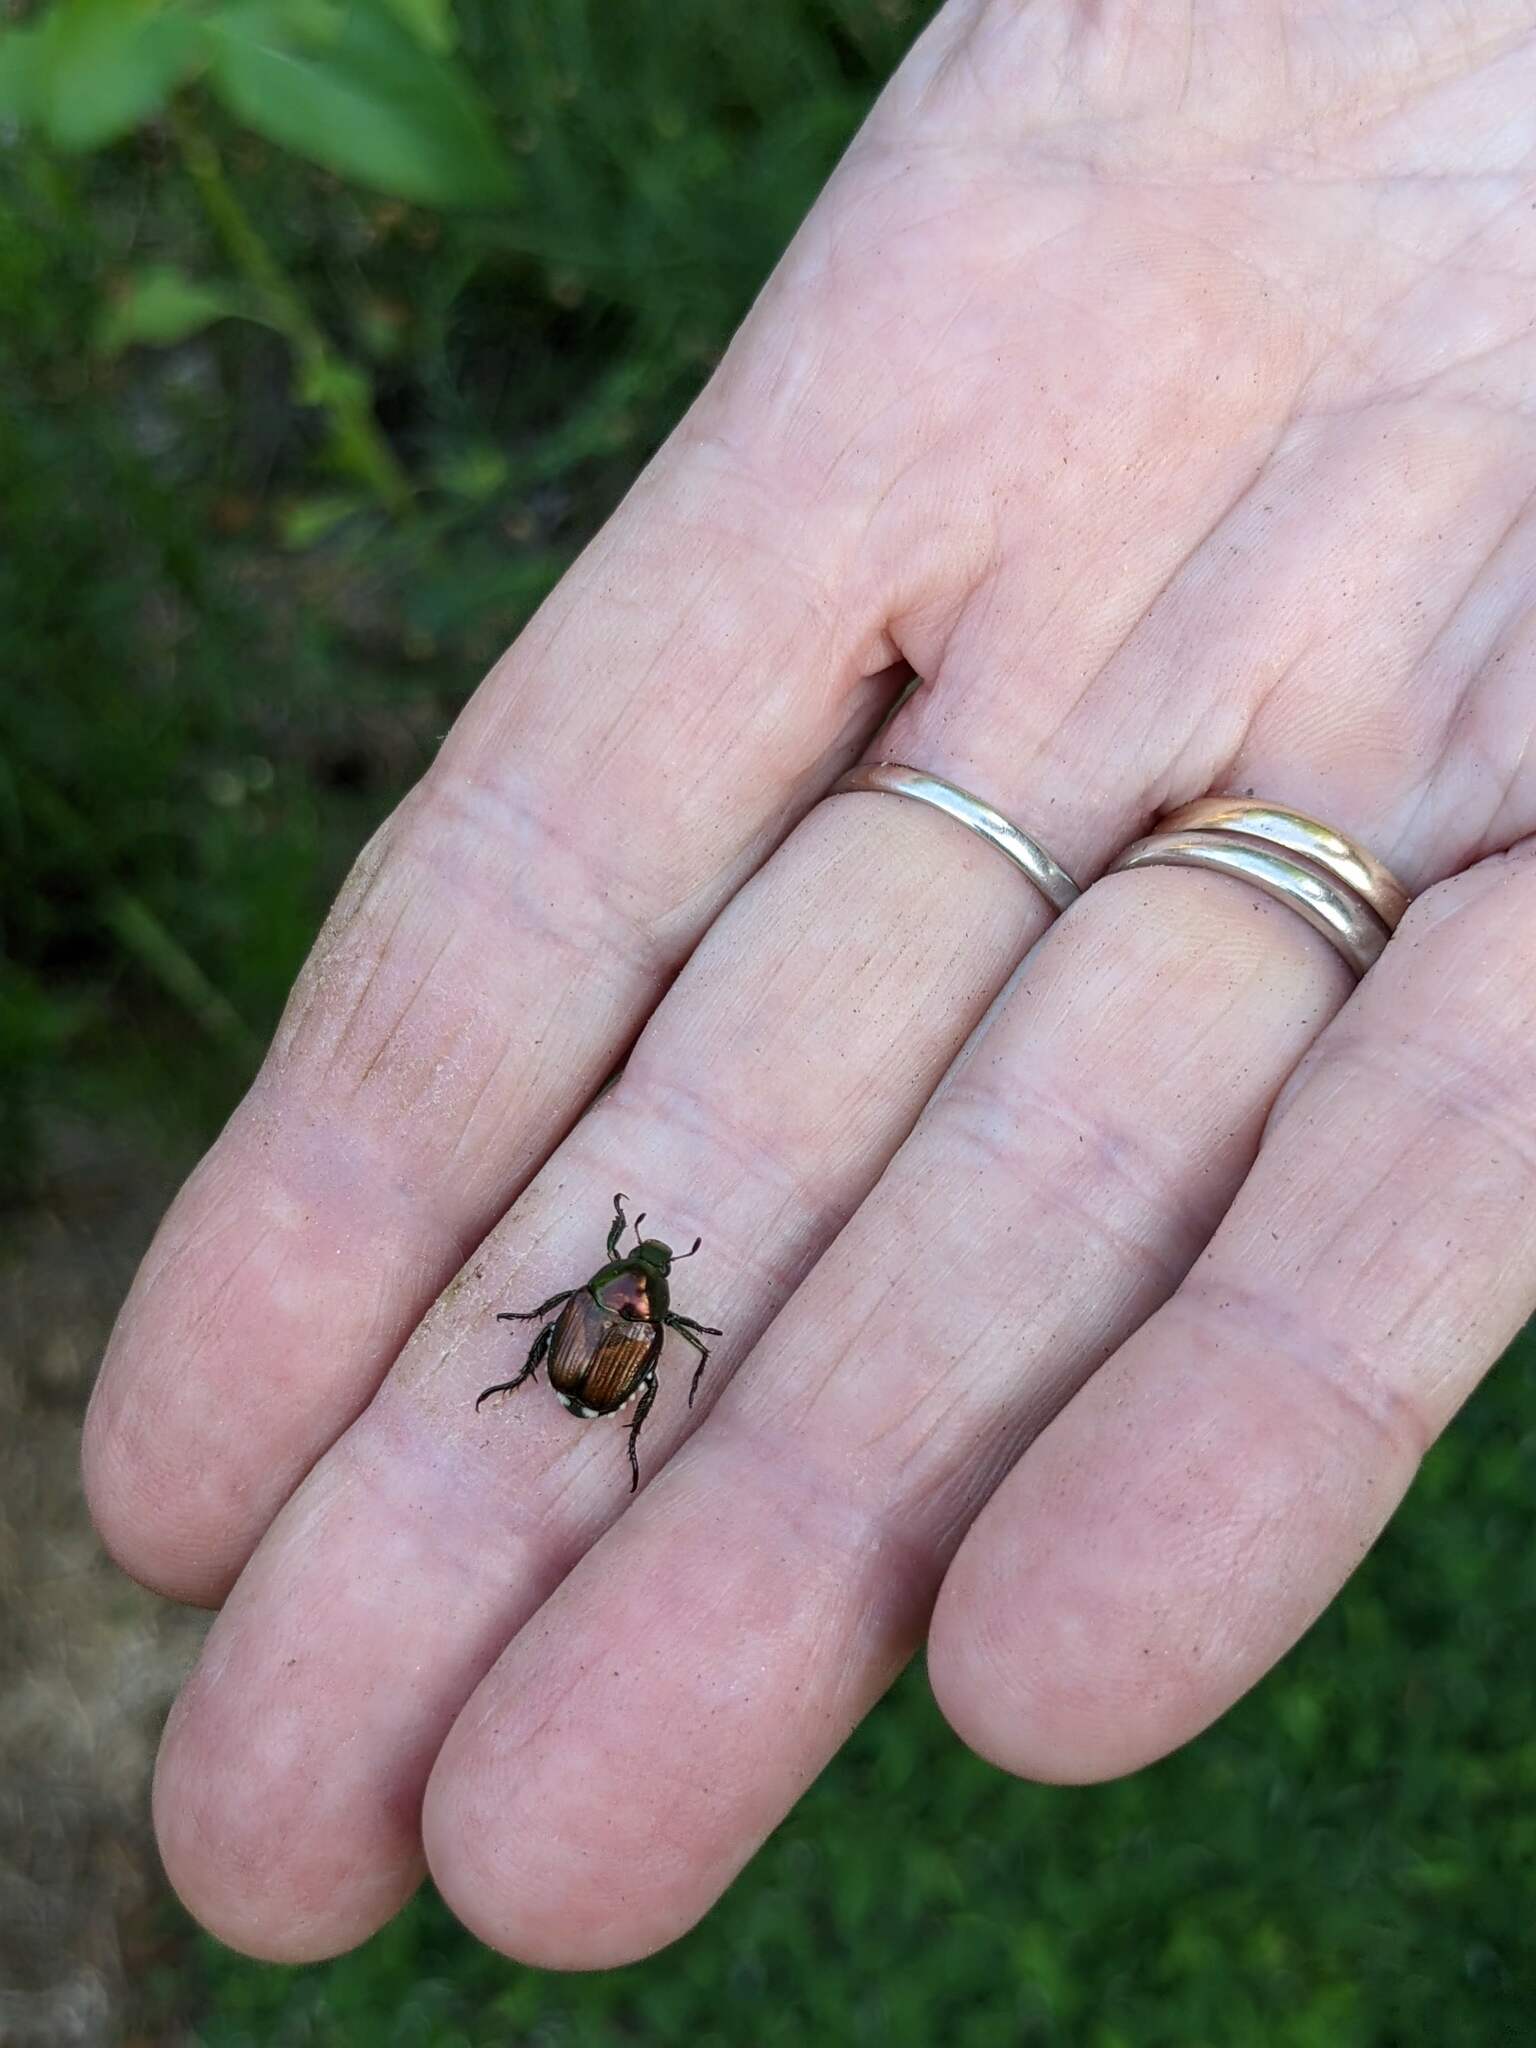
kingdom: Animalia
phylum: Arthropoda
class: Insecta
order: Coleoptera
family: Scarabaeidae
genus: Popillia
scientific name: Popillia japonica
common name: Japanese beetle
